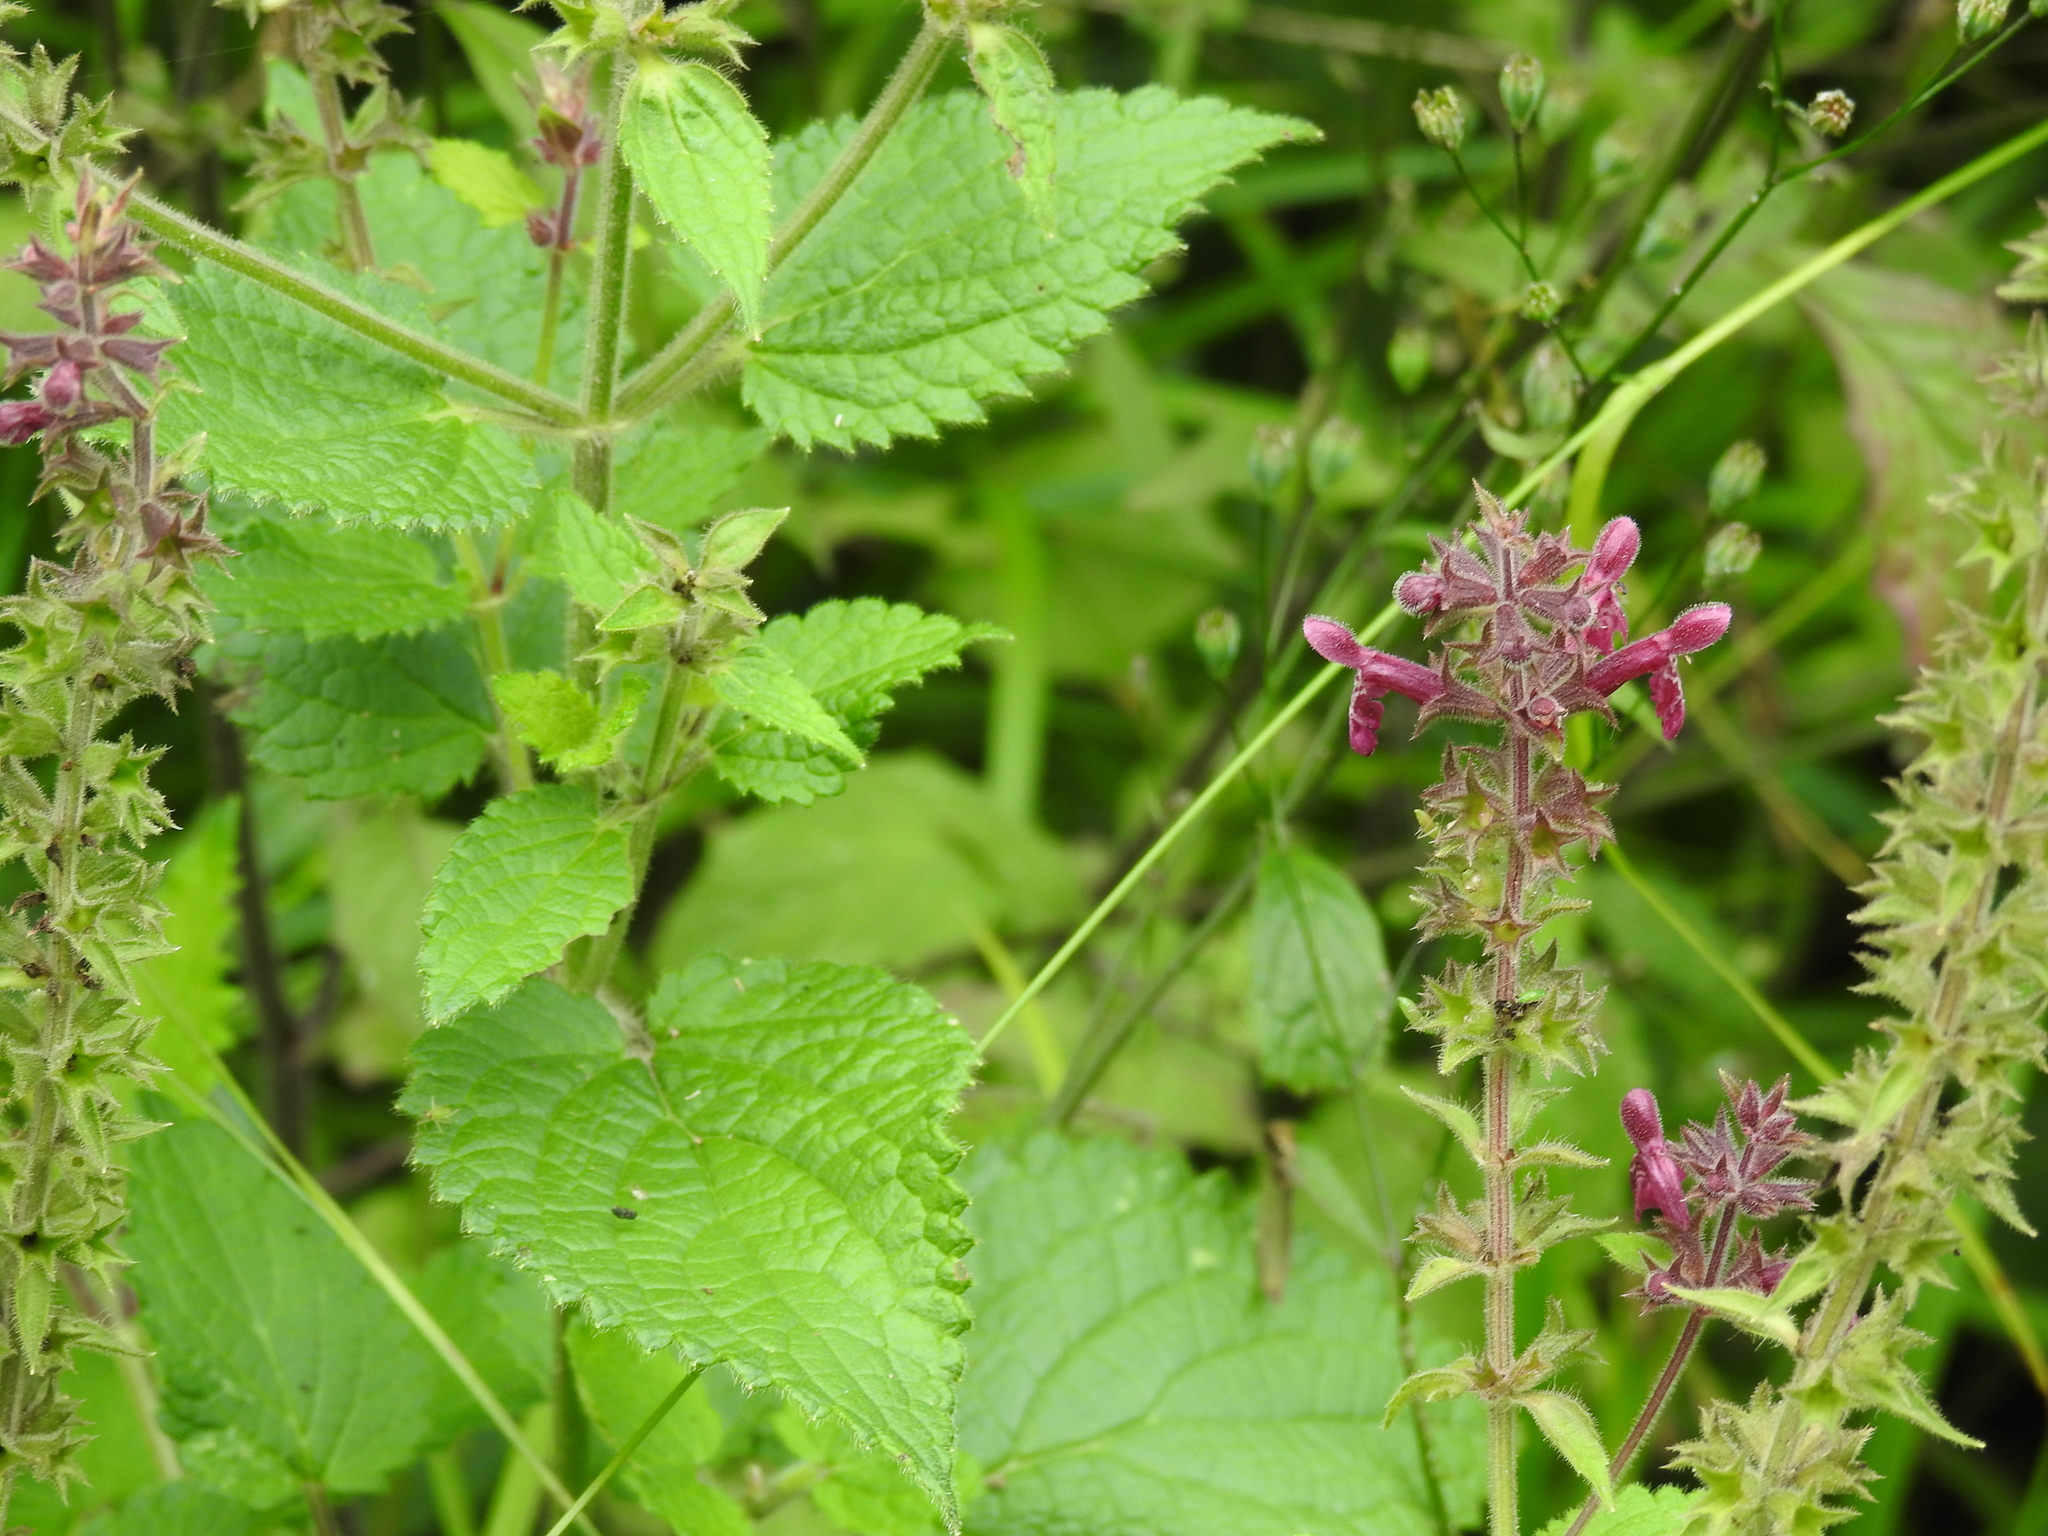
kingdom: Plantae
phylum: Tracheophyta
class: Magnoliopsida
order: Lamiales
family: Lamiaceae
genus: Stachys
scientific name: Stachys sylvatica
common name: Hedge woundwort
